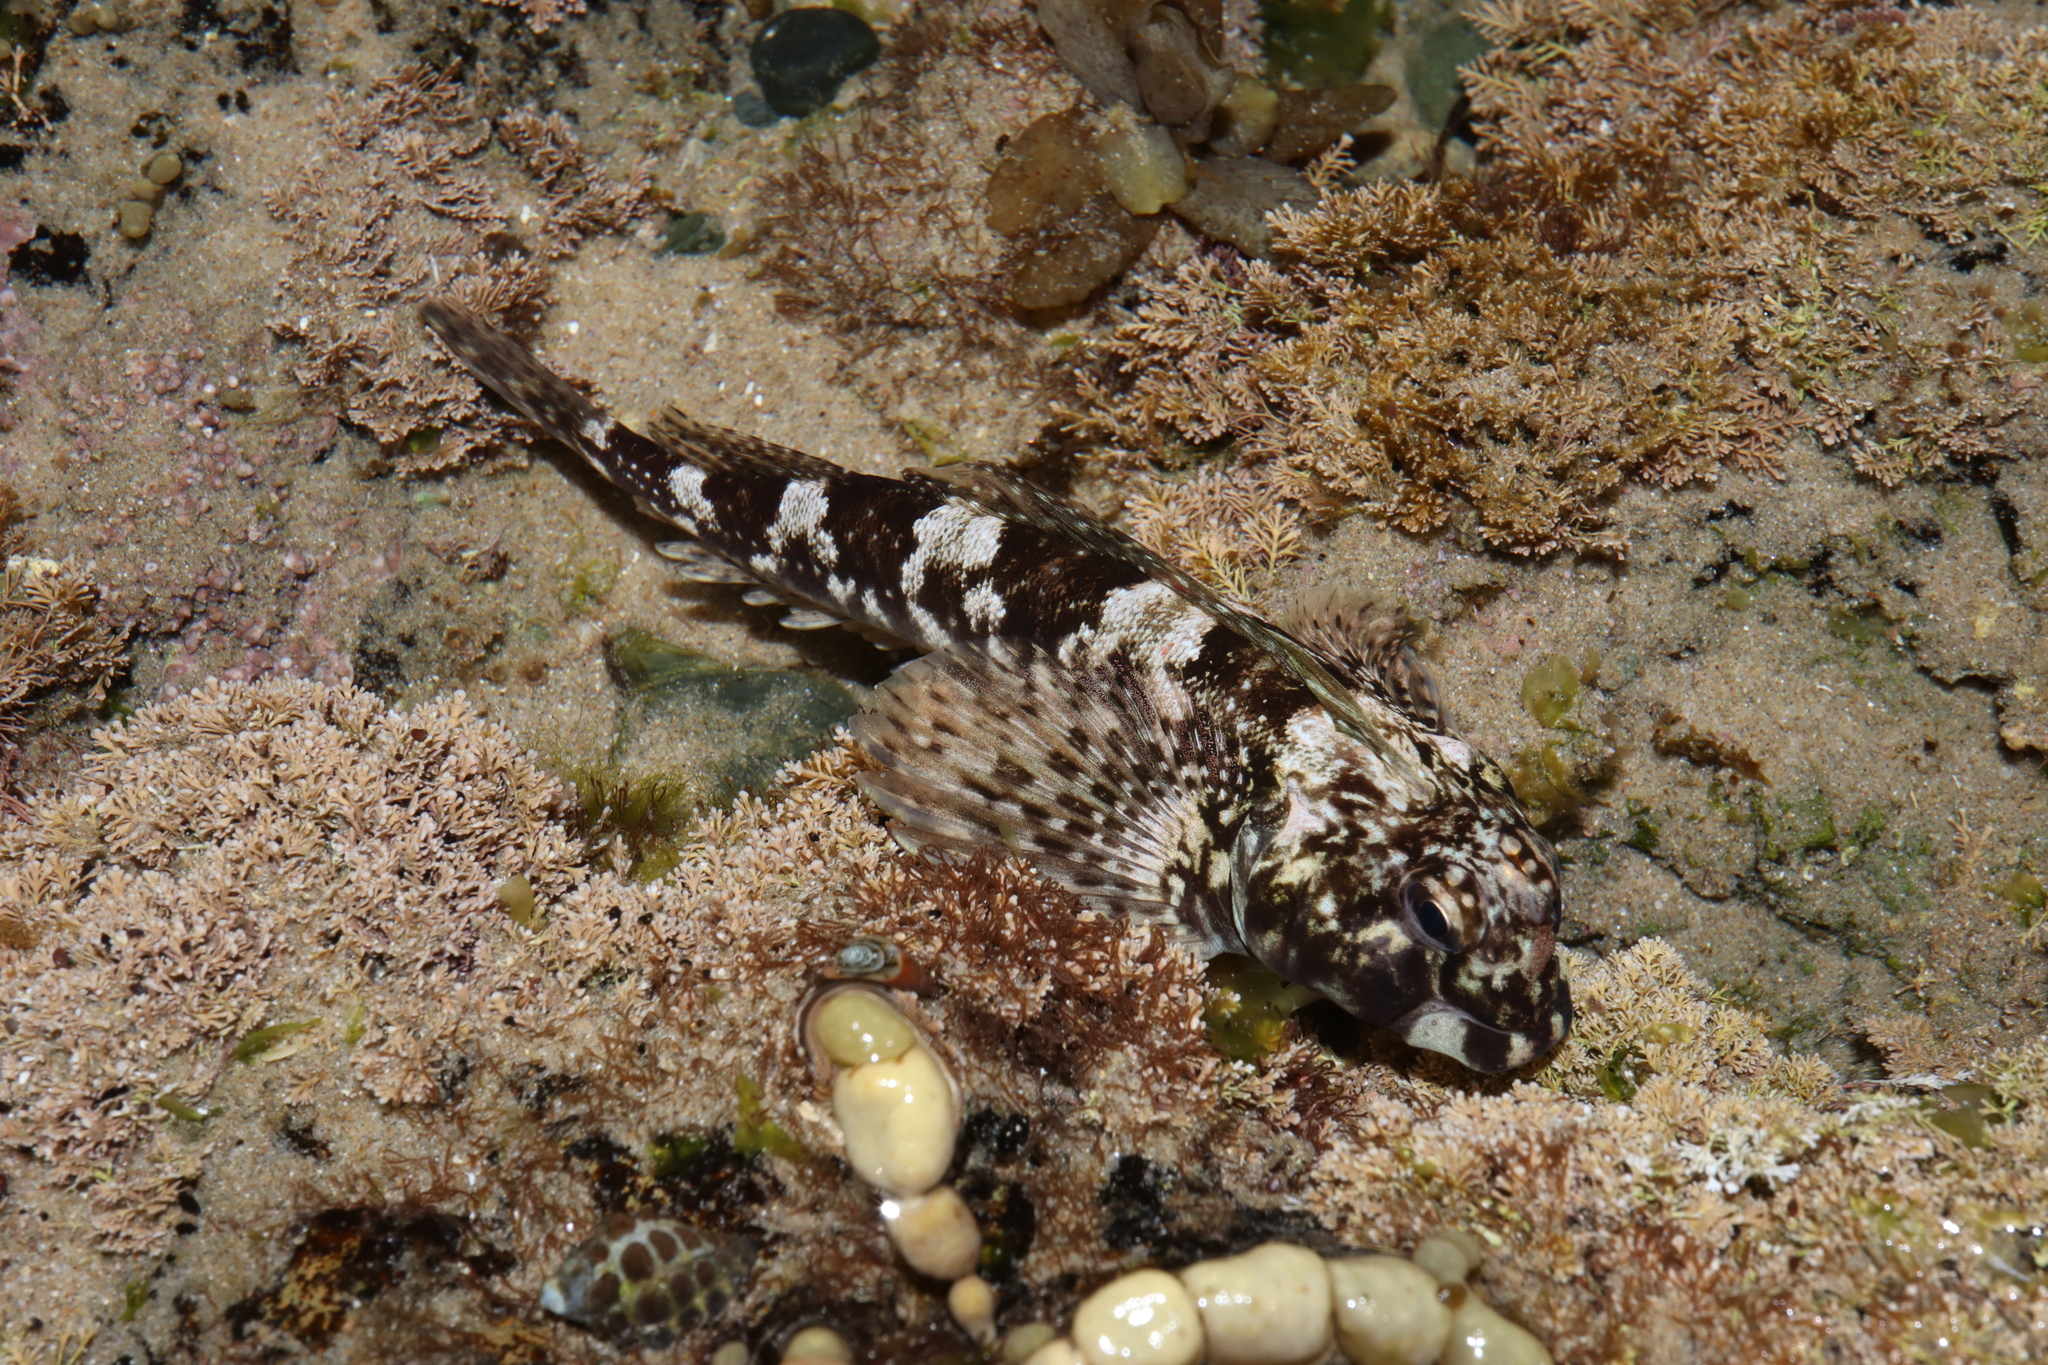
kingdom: Animalia
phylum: Chordata
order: Perciformes
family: Tripterygiidae
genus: Lepidoblennius
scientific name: Lepidoblennius haplodactylus
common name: Eastern jumping blenny
